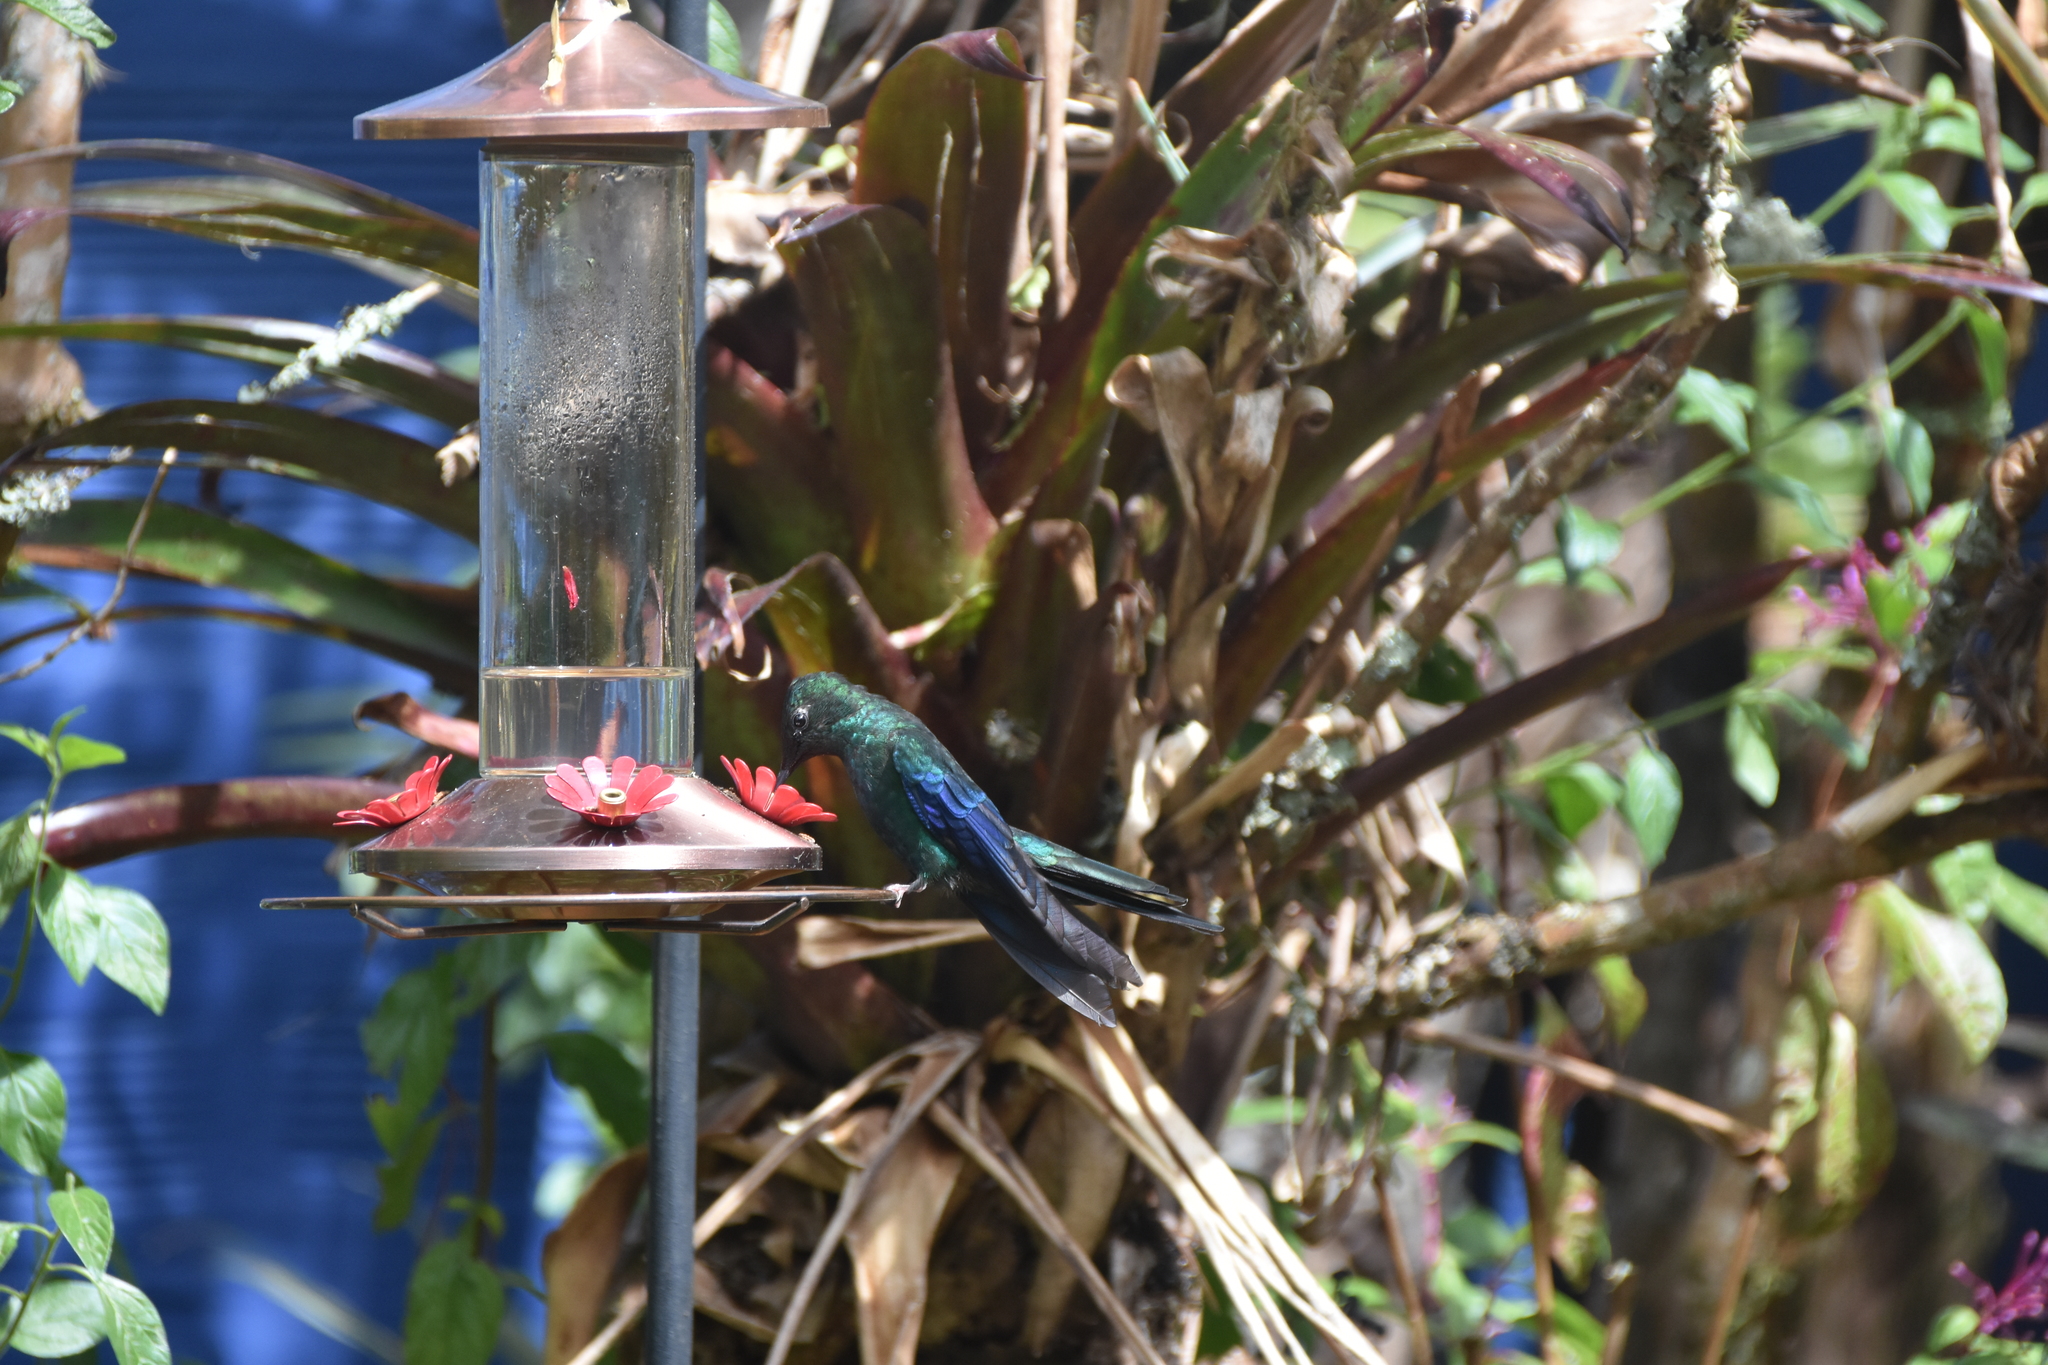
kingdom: Animalia
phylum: Chordata
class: Aves
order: Apodiformes
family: Trochilidae
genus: Pterophanes
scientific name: Pterophanes cyanopterus
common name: Great sapphirewing
